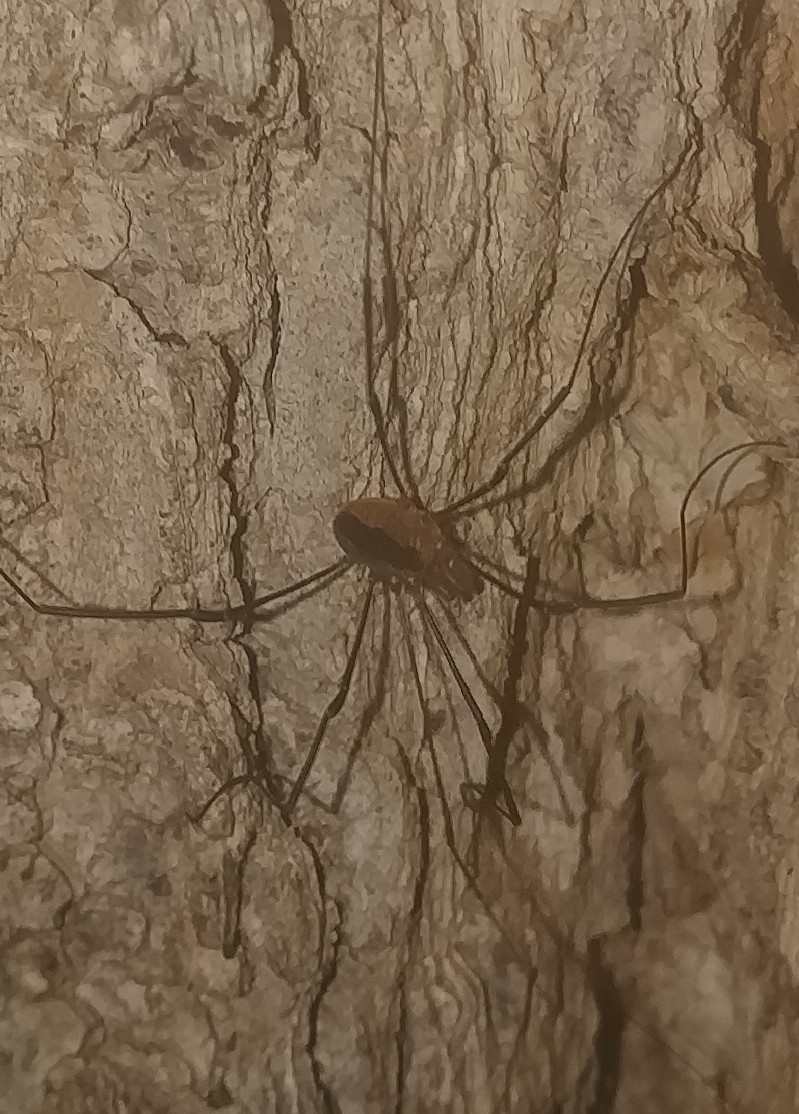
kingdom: Animalia
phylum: Arthropoda
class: Arachnida
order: Opiliones
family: Sclerosomatidae
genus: Leiobunum
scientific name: Leiobunum vittatum
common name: Eastern harvestman
